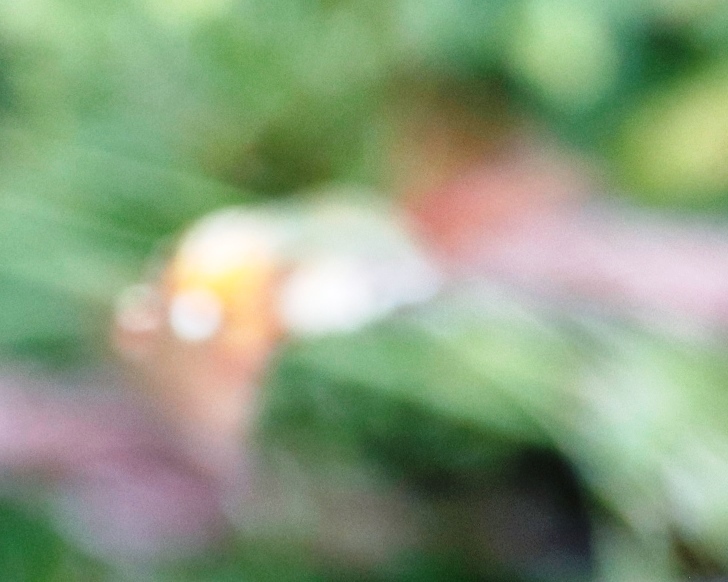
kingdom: Animalia
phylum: Arthropoda
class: Insecta
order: Lepidoptera
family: Sphingidae
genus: Macroglossum
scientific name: Macroglossum trochilus
